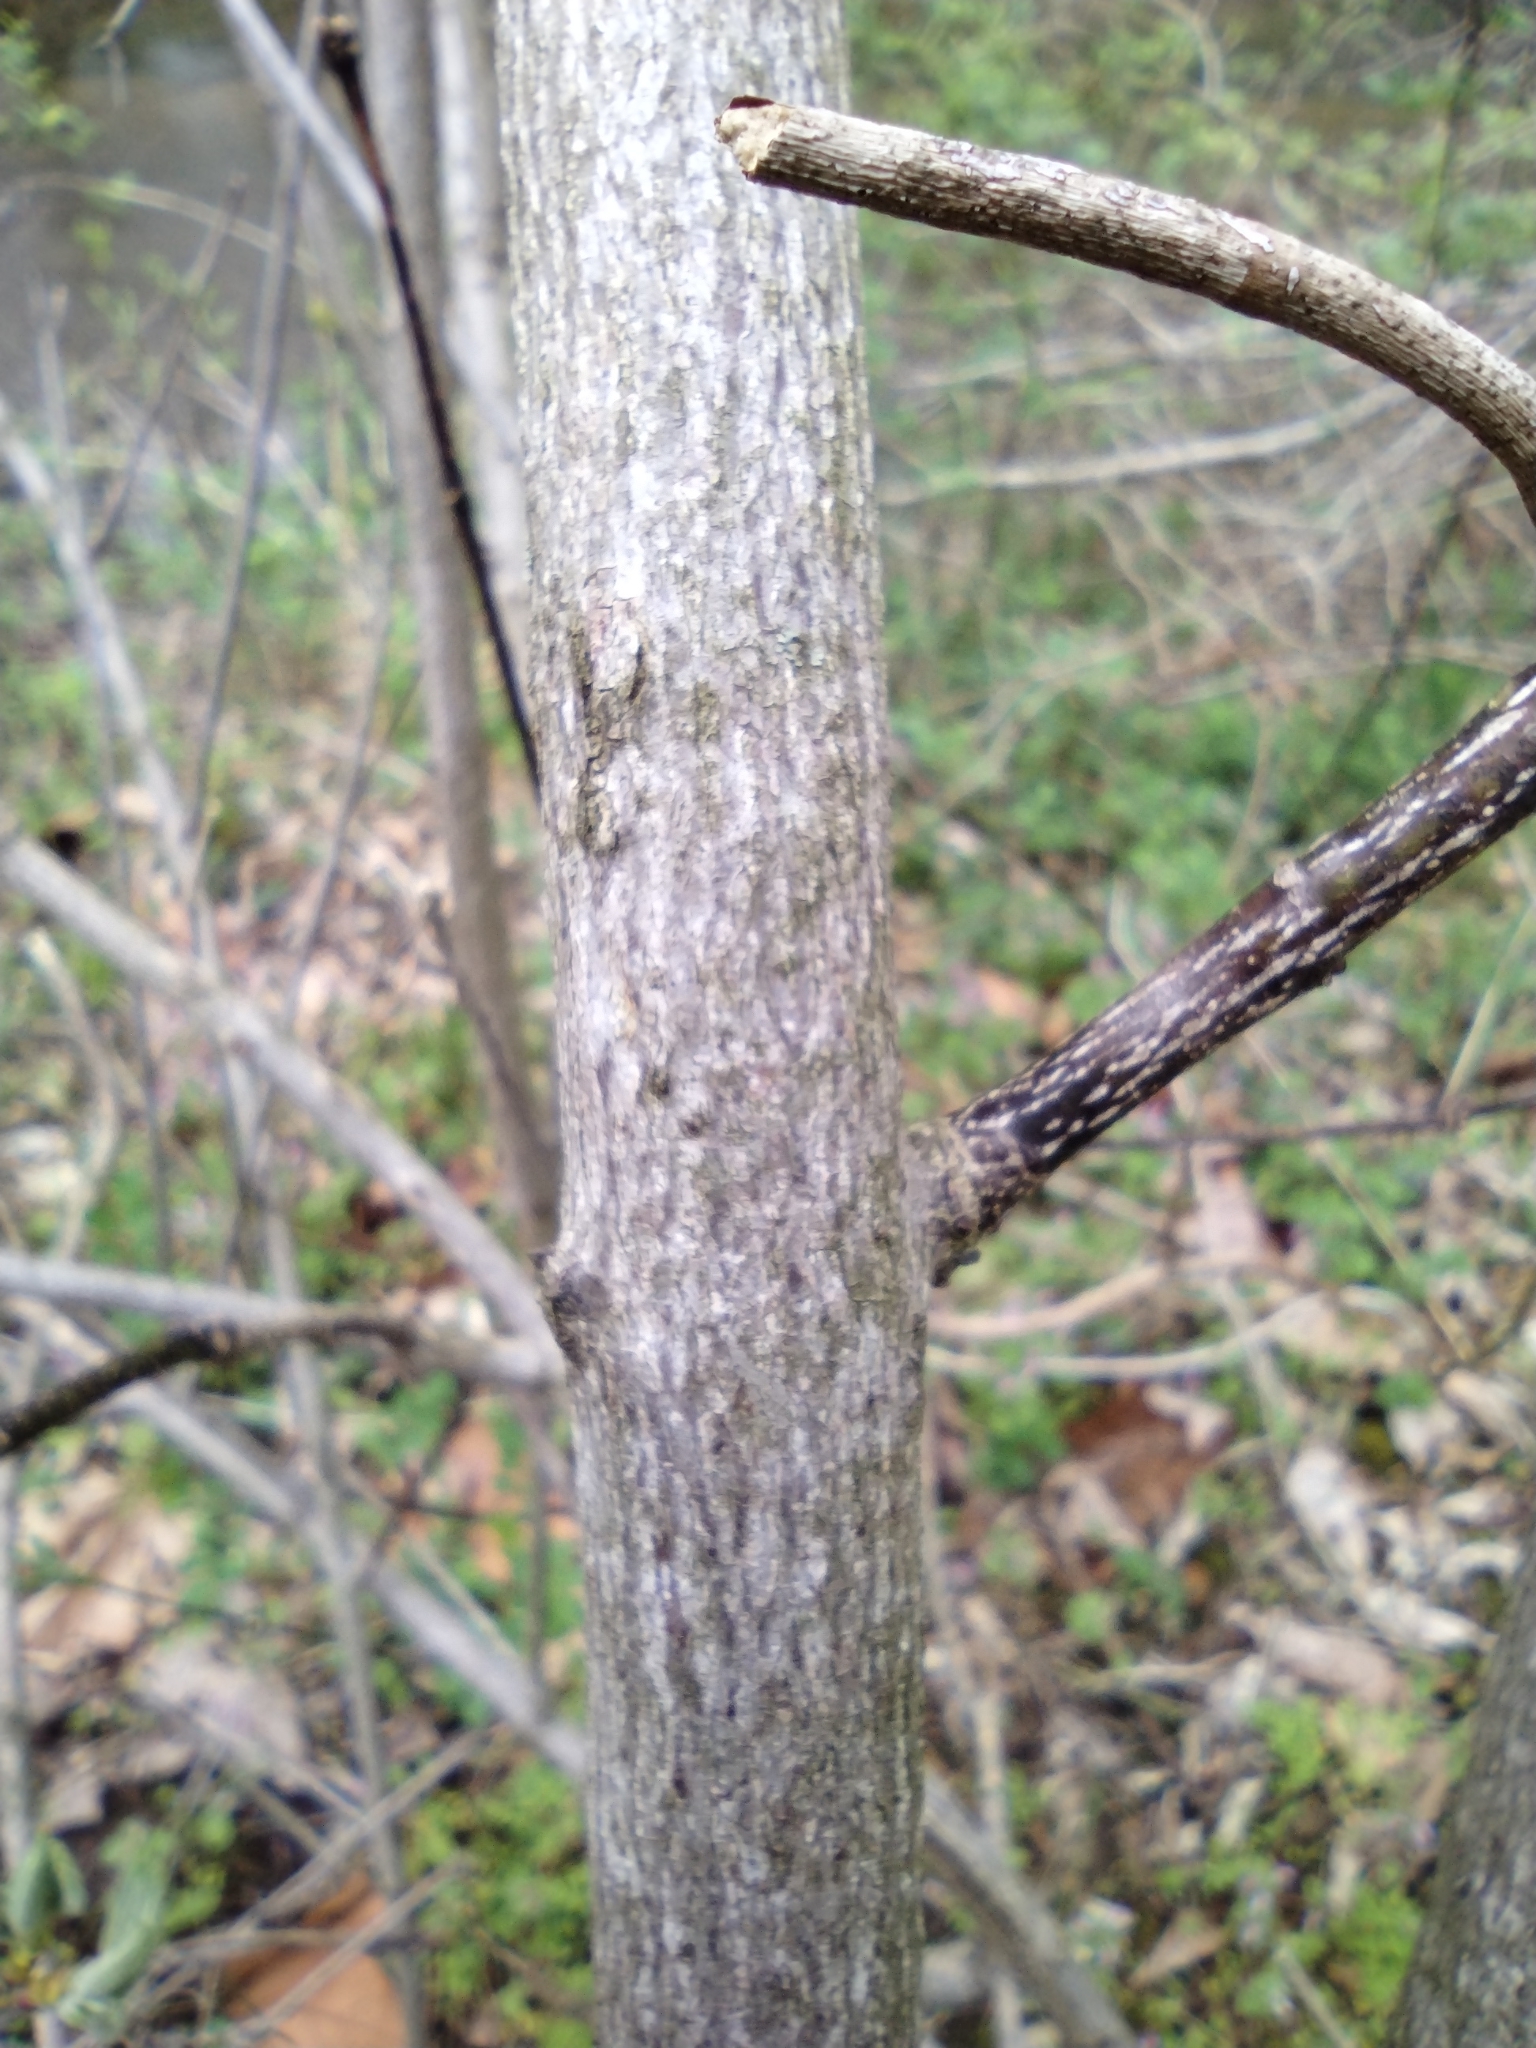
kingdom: Plantae
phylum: Tracheophyta
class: Magnoliopsida
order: Crossosomatales
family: Staphyleaceae
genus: Staphylea
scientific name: Staphylea trifolia
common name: American bladdernut
